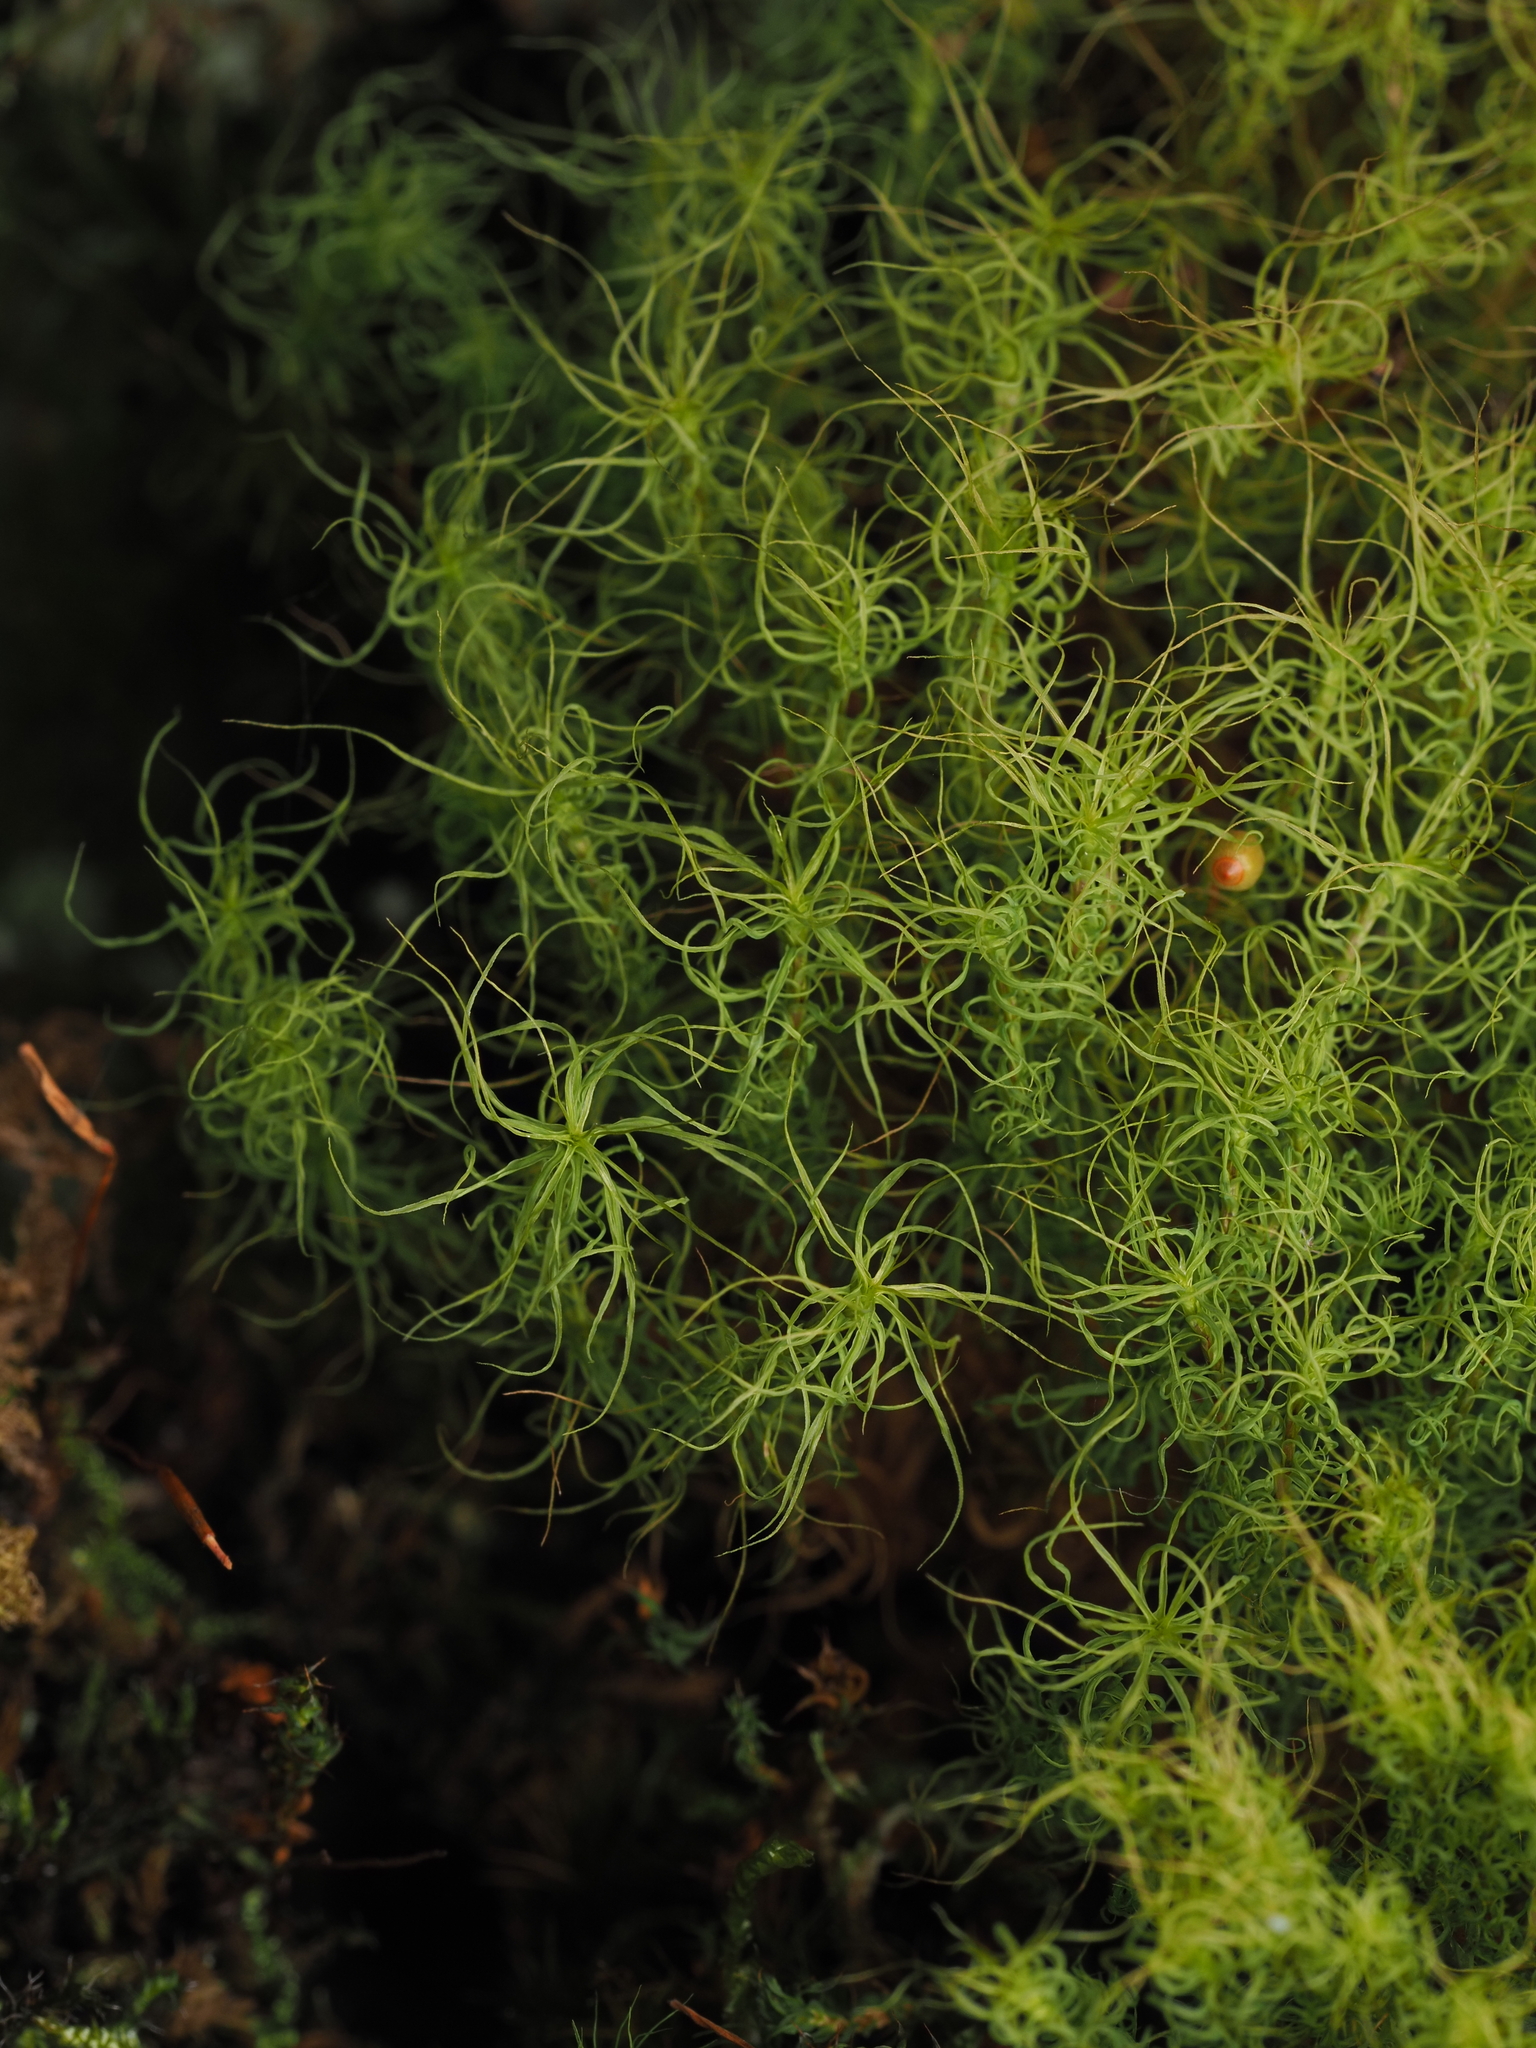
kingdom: Plantae
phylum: Bryophyta
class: Bryopsida
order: Bartramiales
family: Bartramiaceae
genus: Bartramia
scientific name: Bartramia mossmaniana
